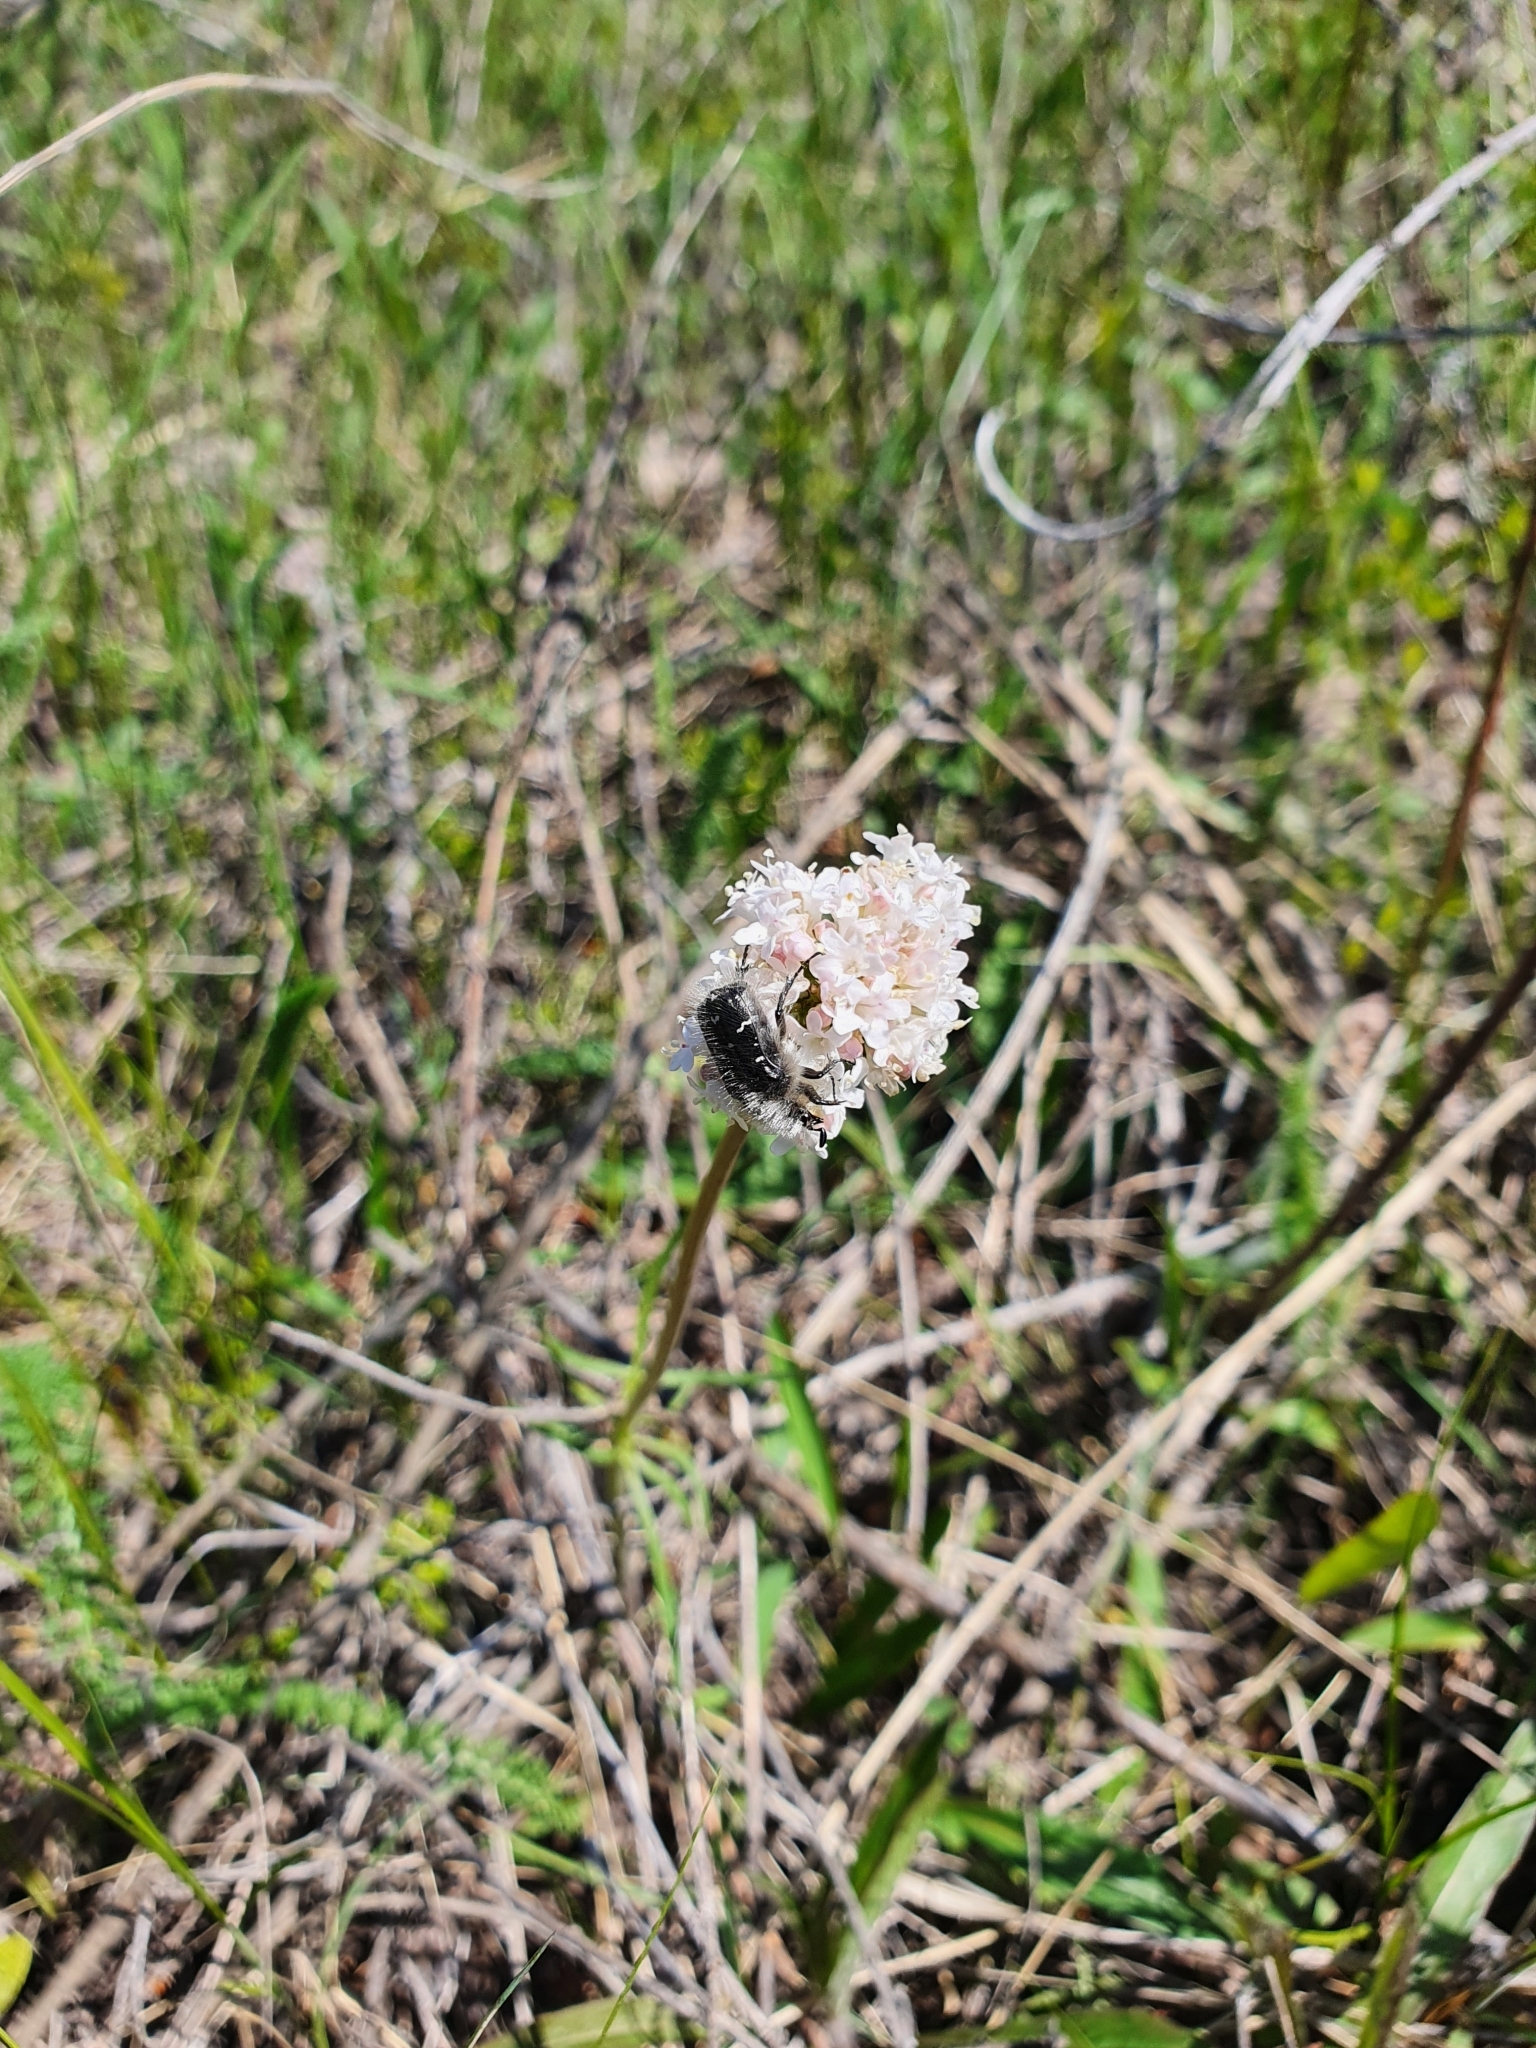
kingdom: Plantae
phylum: Tracheophyta
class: Magnoliopsida
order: Dipsacales
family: Caprifoliaceae
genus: Valeriana
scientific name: Valeriana tuberosa
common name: Tuberous valerian
